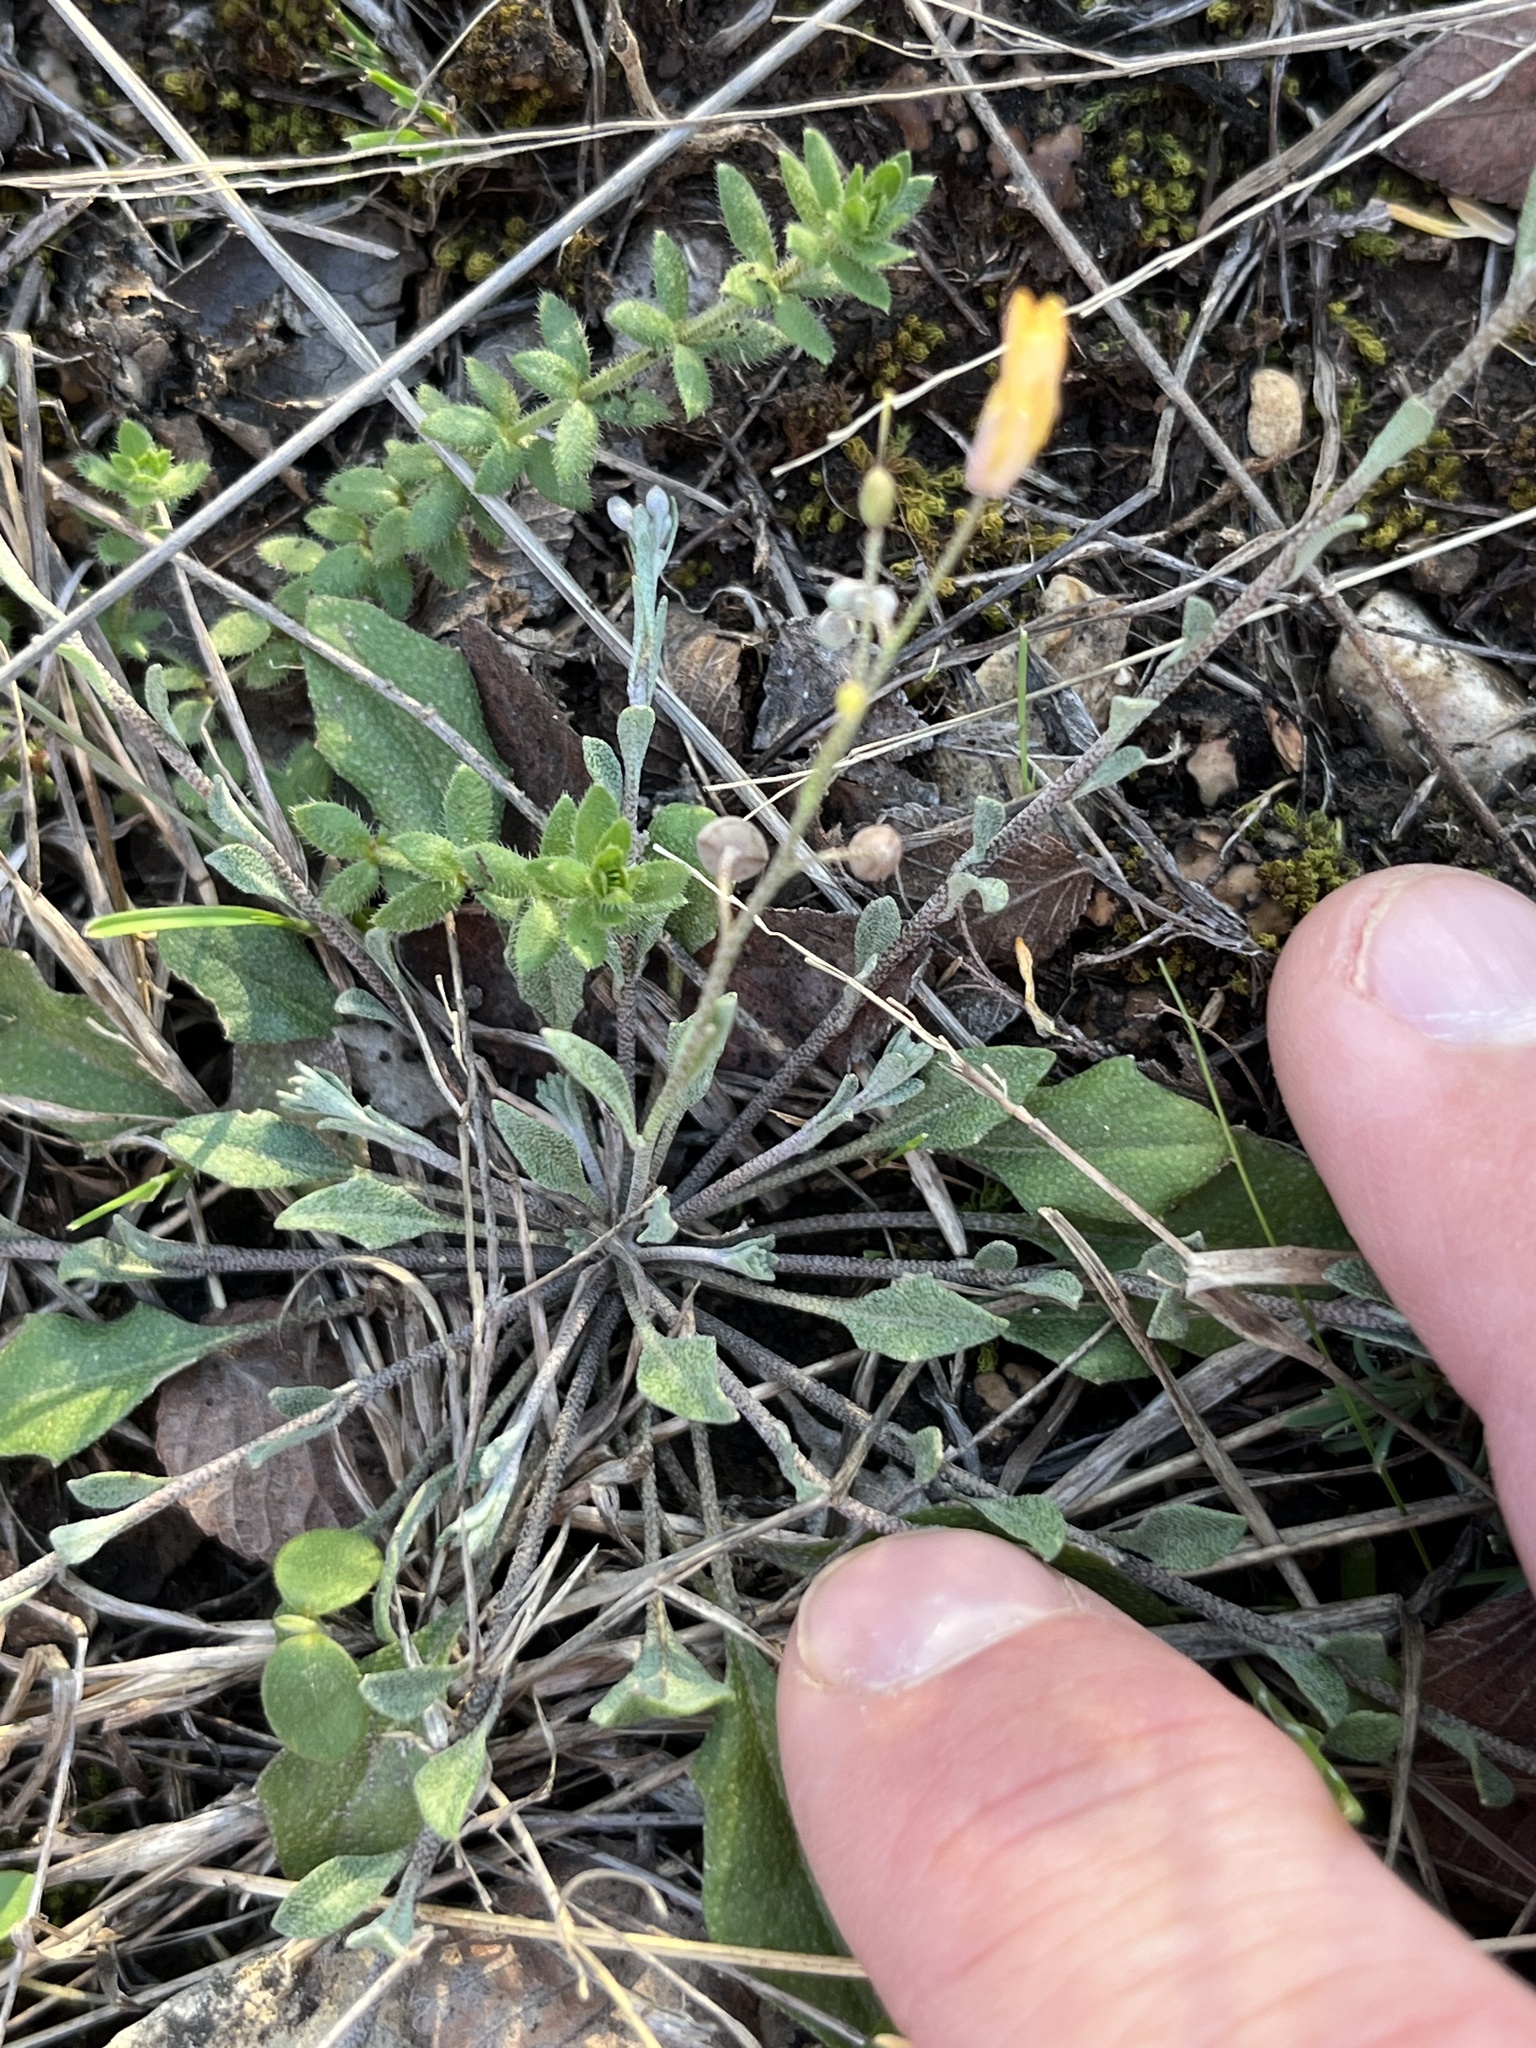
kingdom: Plantae
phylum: Tracheophyta
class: Magnoliopsida
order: Brassicales
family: Brassicaceae
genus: Physaria
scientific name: Physaria gracilis
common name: Spreading bladderpod
